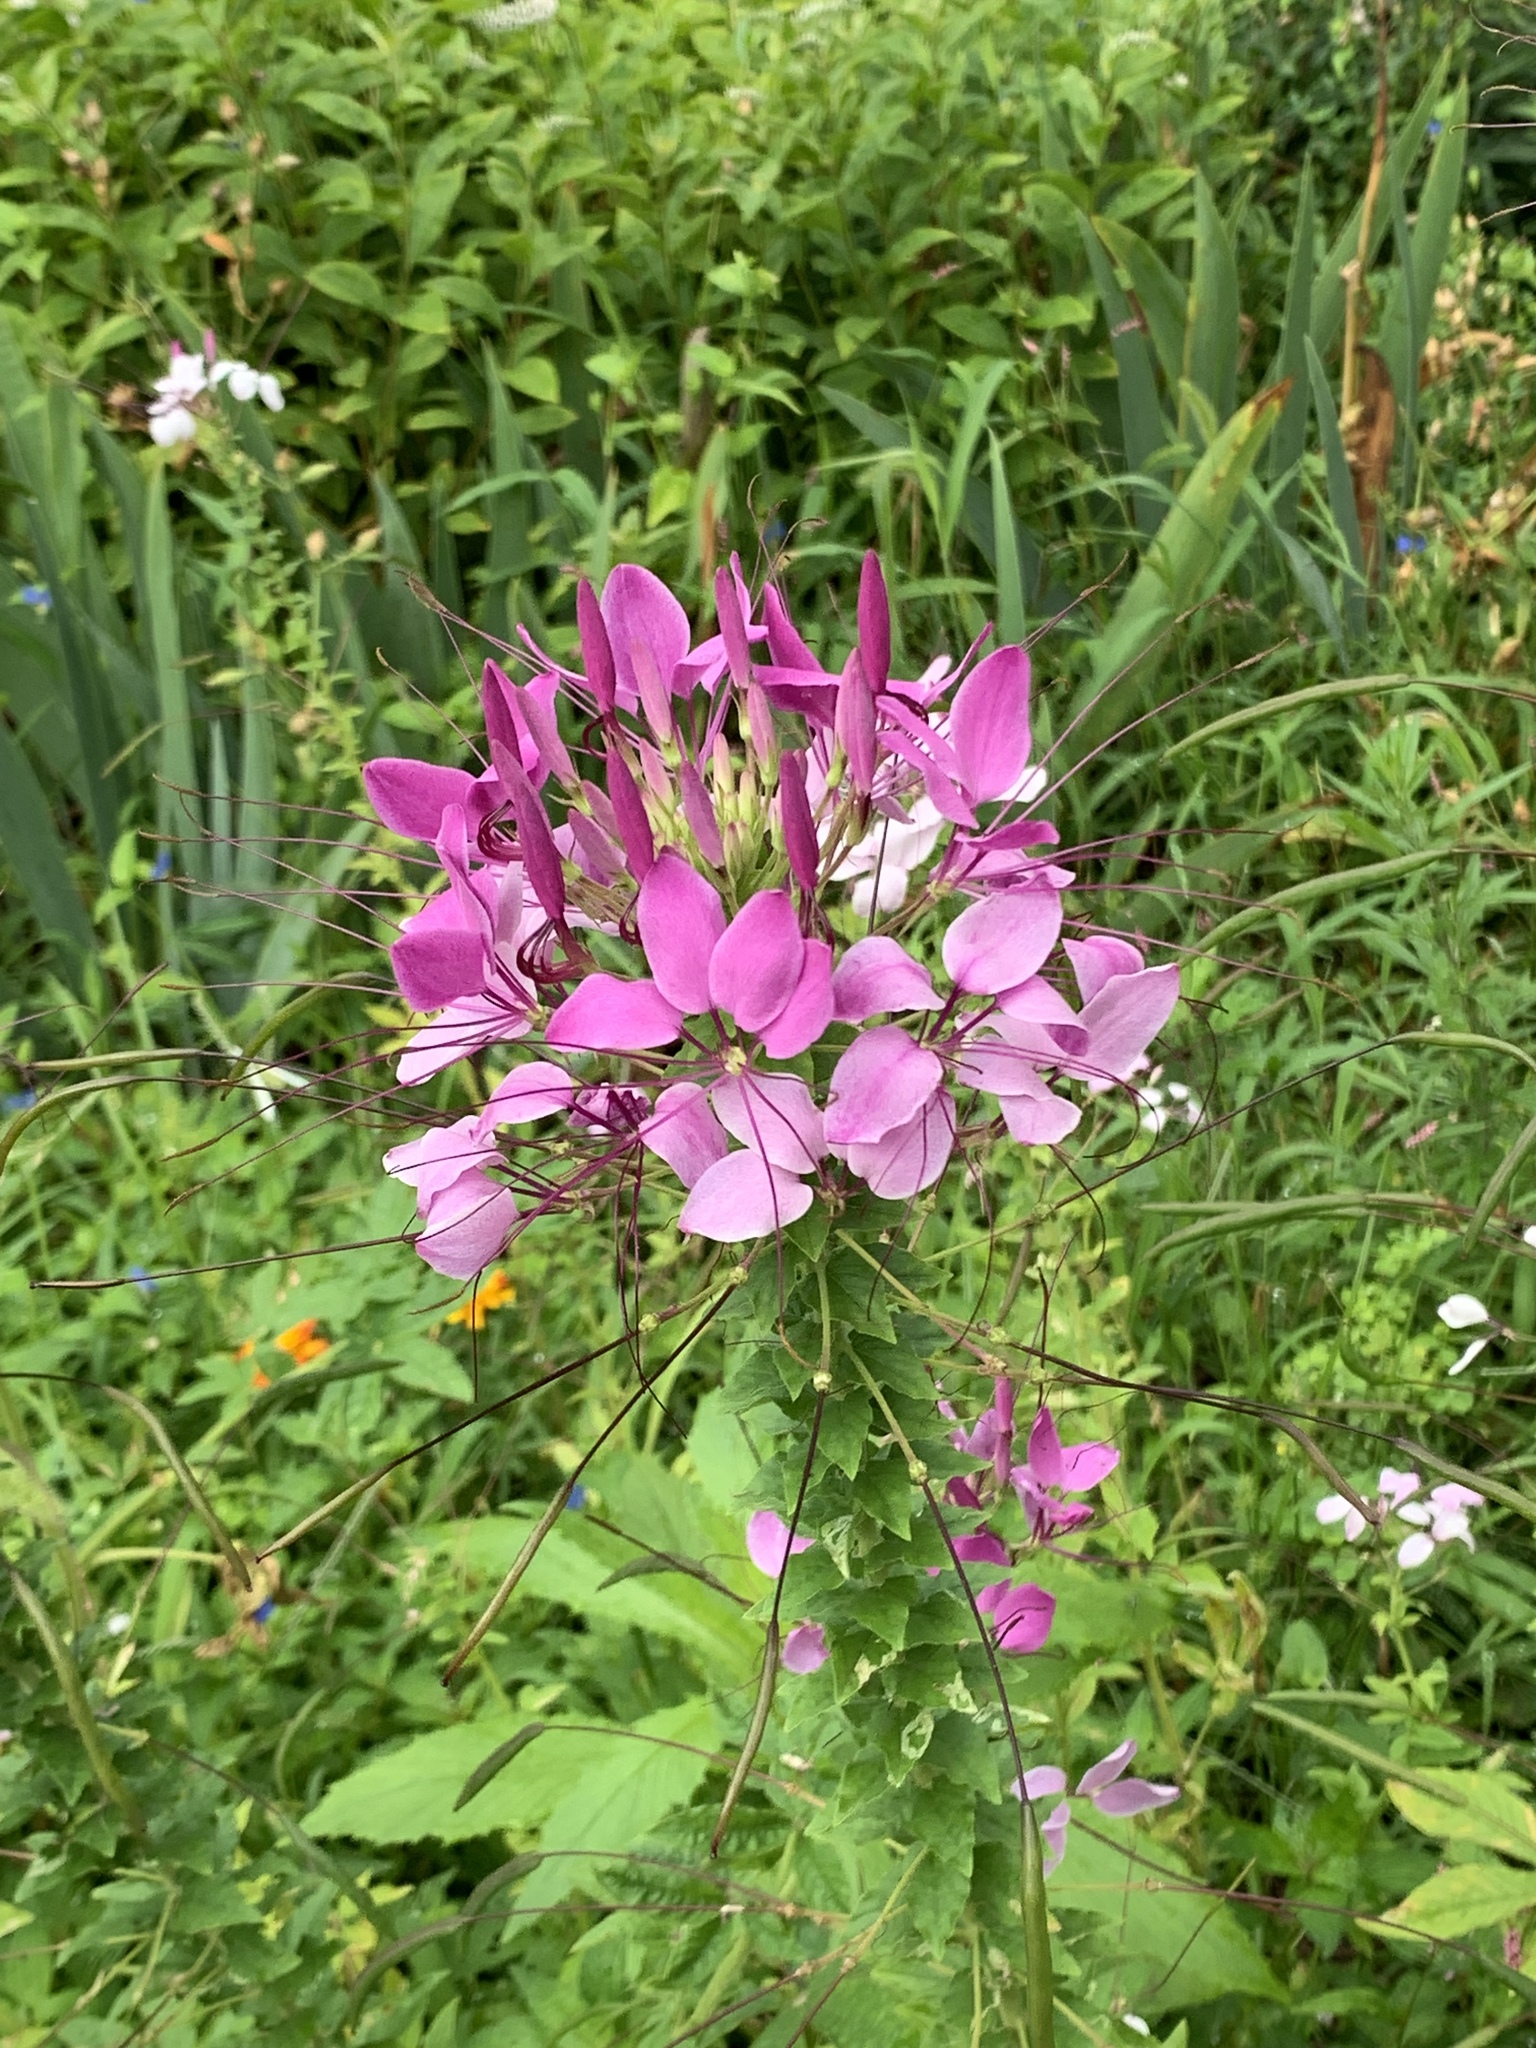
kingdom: Plantae
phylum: Tracheophyta
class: Magnoliopsida
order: Brassicales
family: Cleomaceae
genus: Tarenaya
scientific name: Tarenaya houtteana
